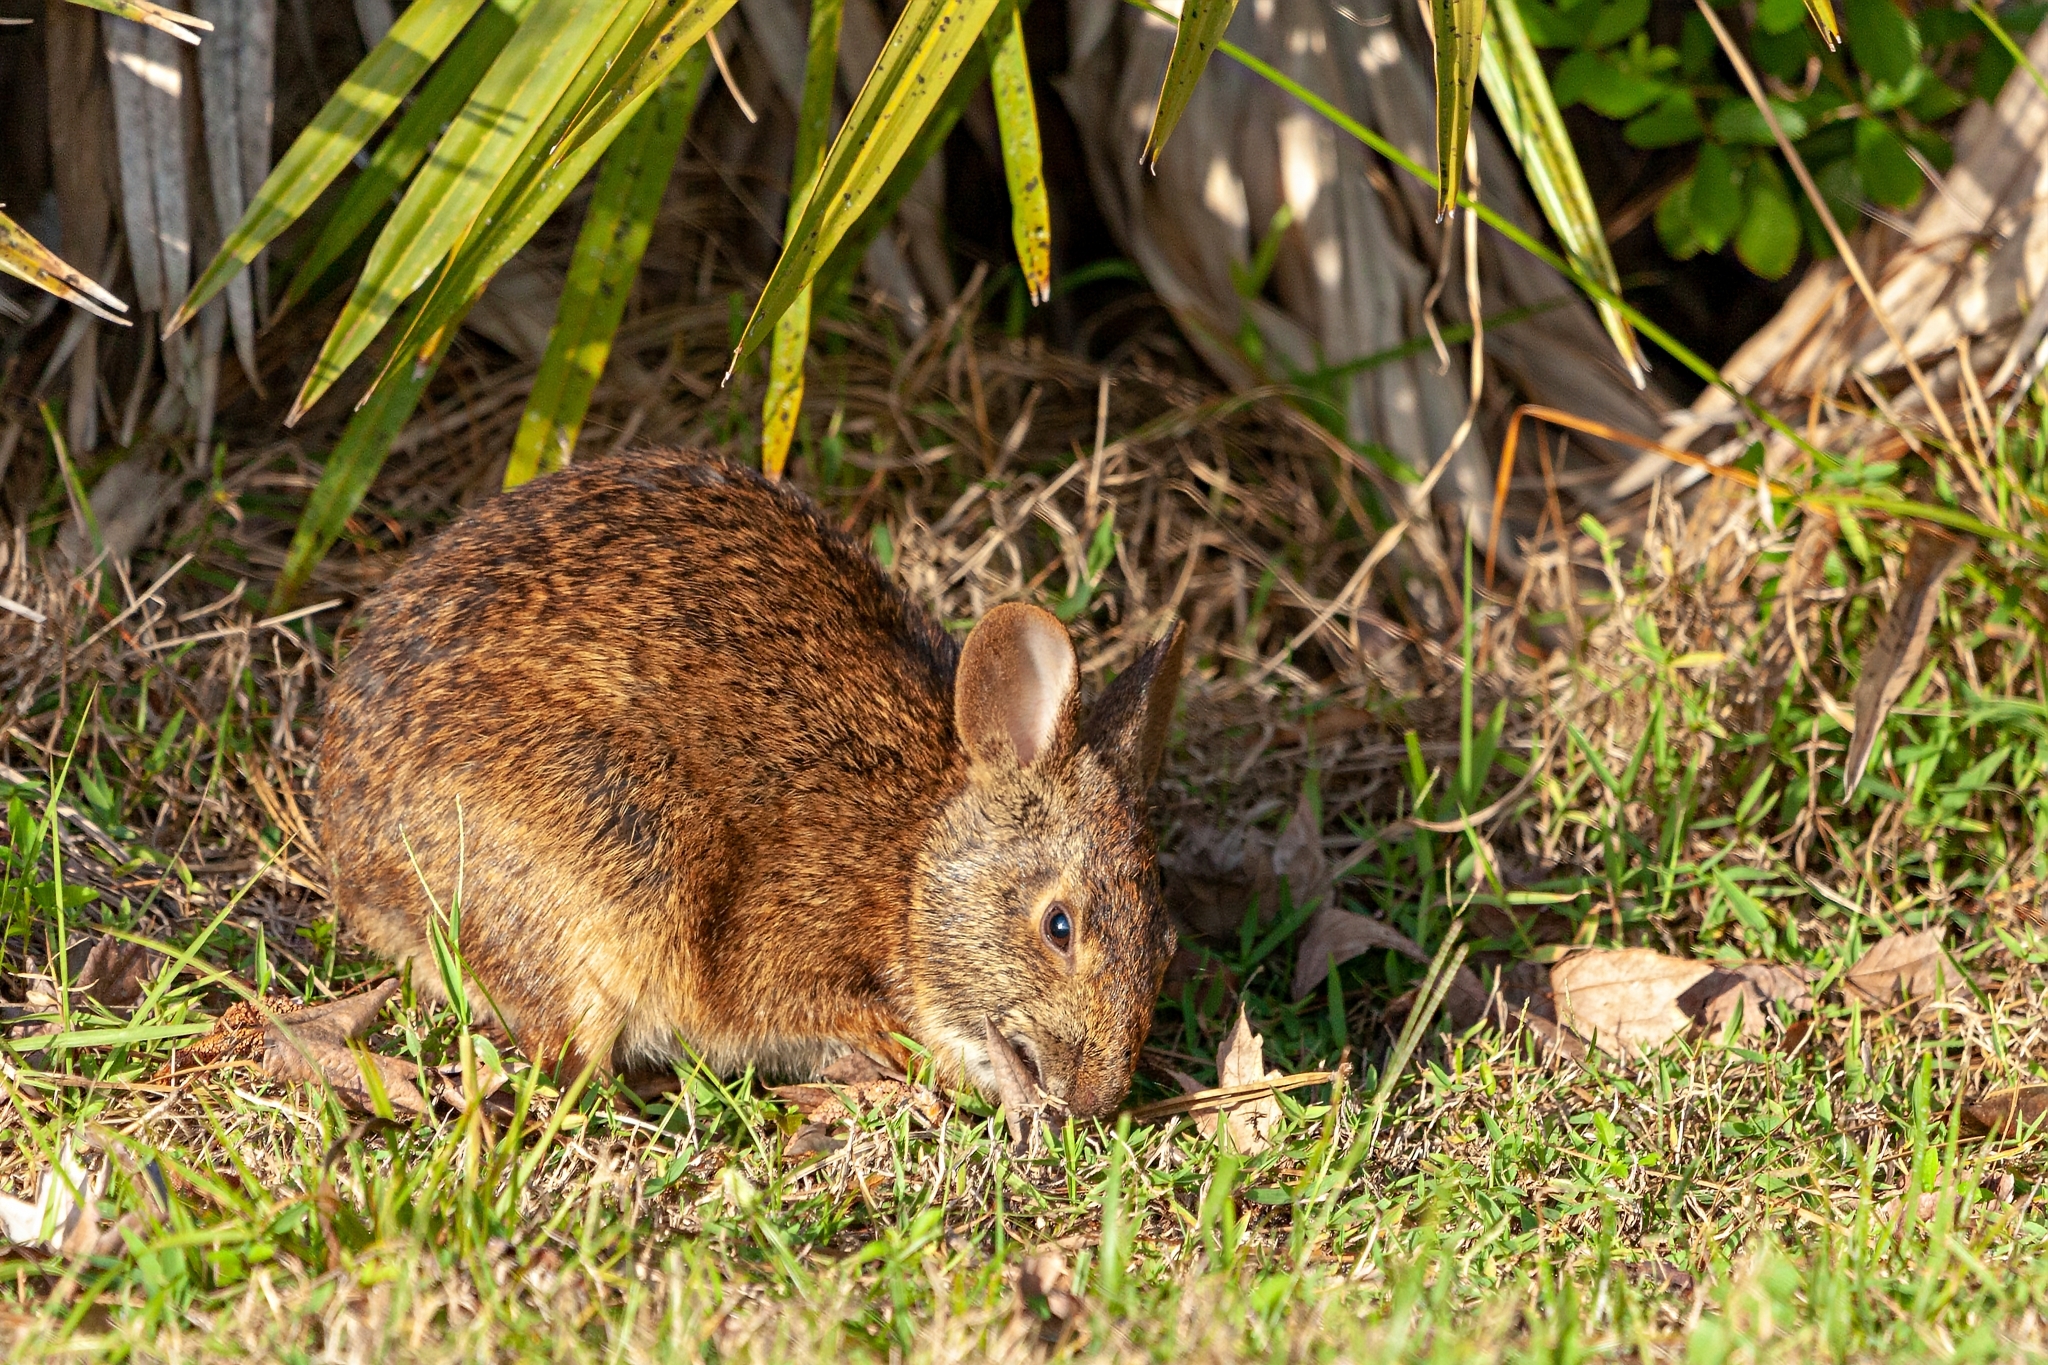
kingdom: Animalia
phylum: Chordata
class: Mammalia
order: Lagomorpha
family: Leporidae
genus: Sylvilagus
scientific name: Sylvilagus palustris
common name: Marsh rabbit
